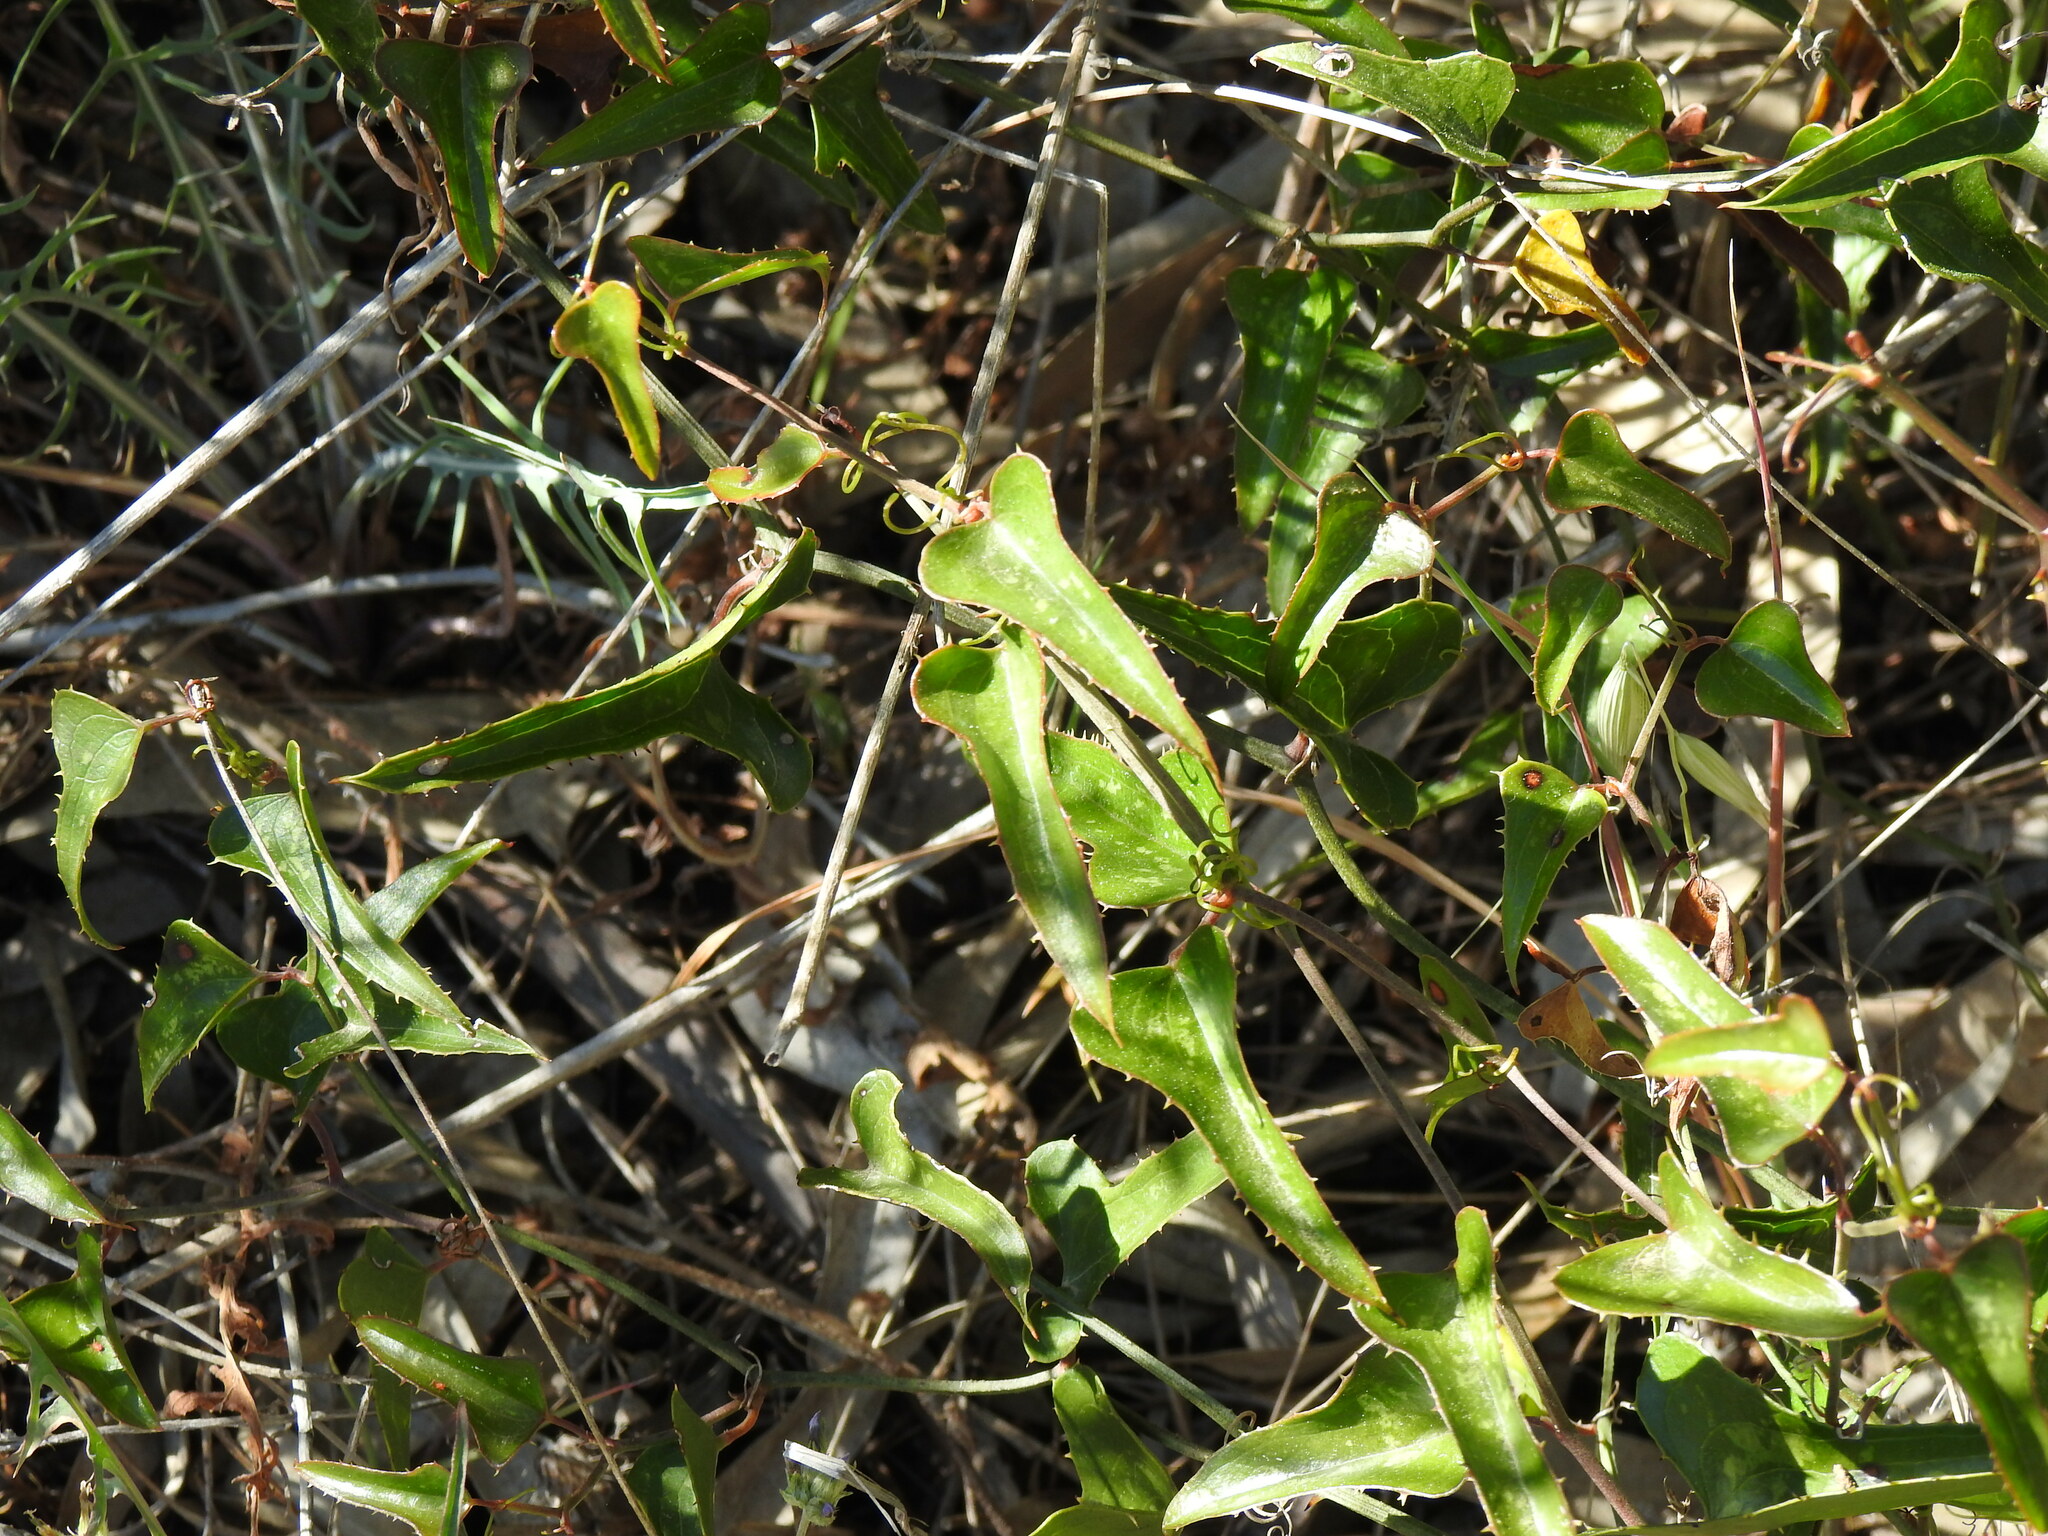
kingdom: Plantae
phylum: Tracheophyta
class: Liliopsida
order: Liliales
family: Smilacaceae
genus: Smilax
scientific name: Smilax aspera
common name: Common smilax
